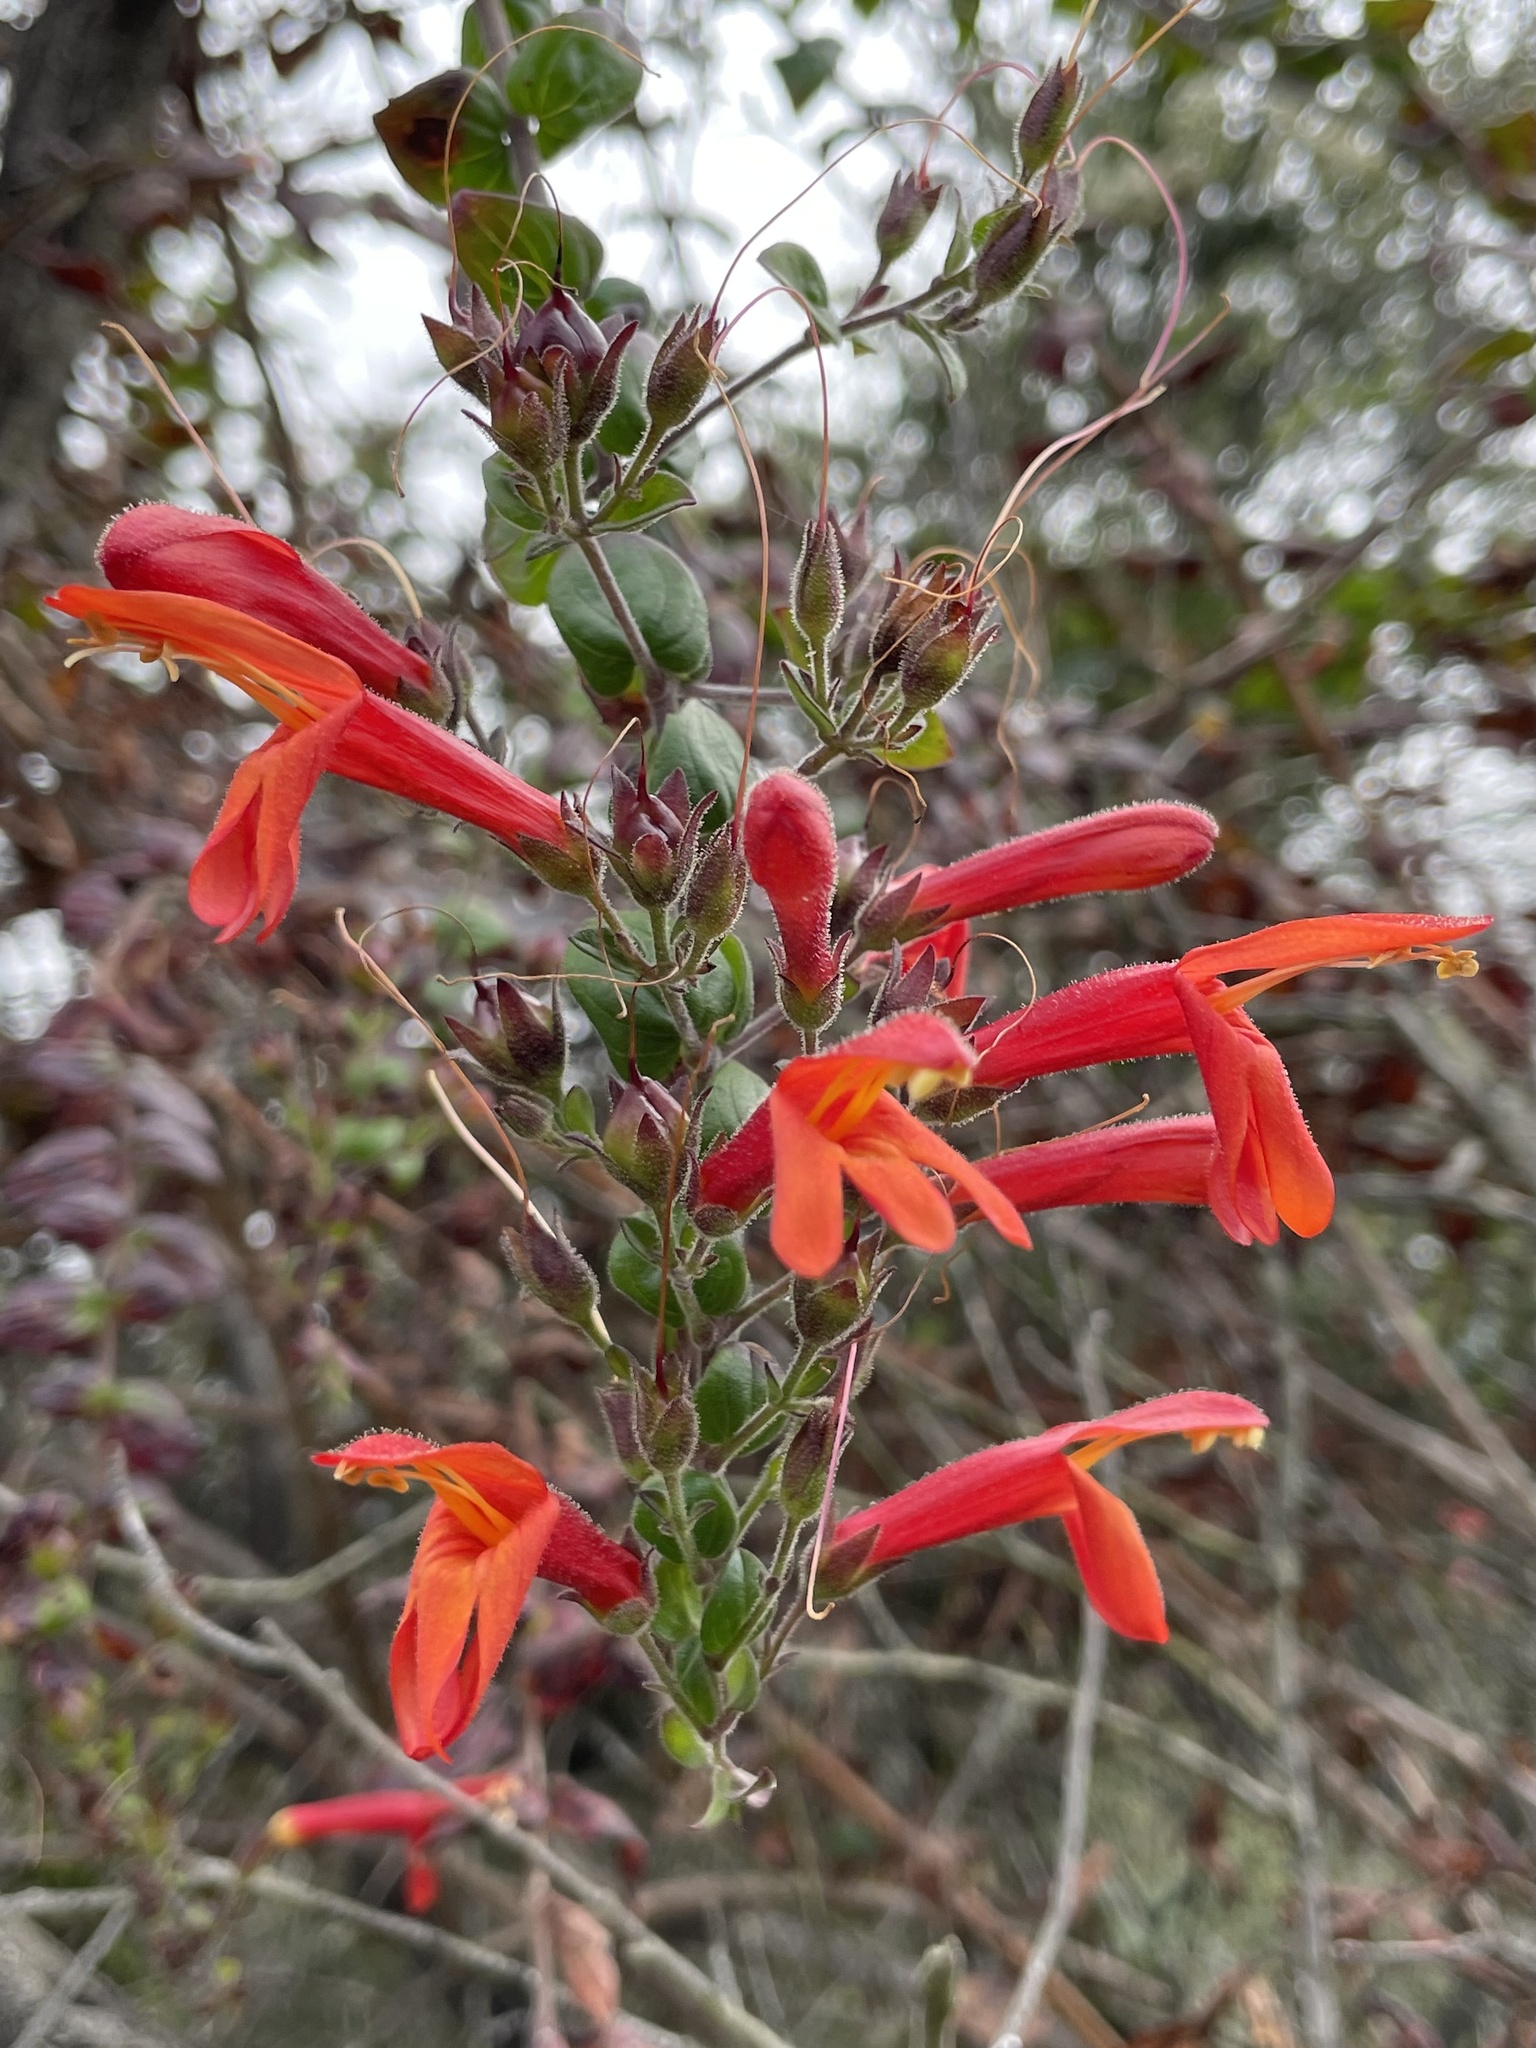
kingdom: Plantae
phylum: Tracheophyta
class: Magnoliopsida
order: Lamiales
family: Plantaginaceae
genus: Keckiella
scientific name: Keckiella cordifolia
